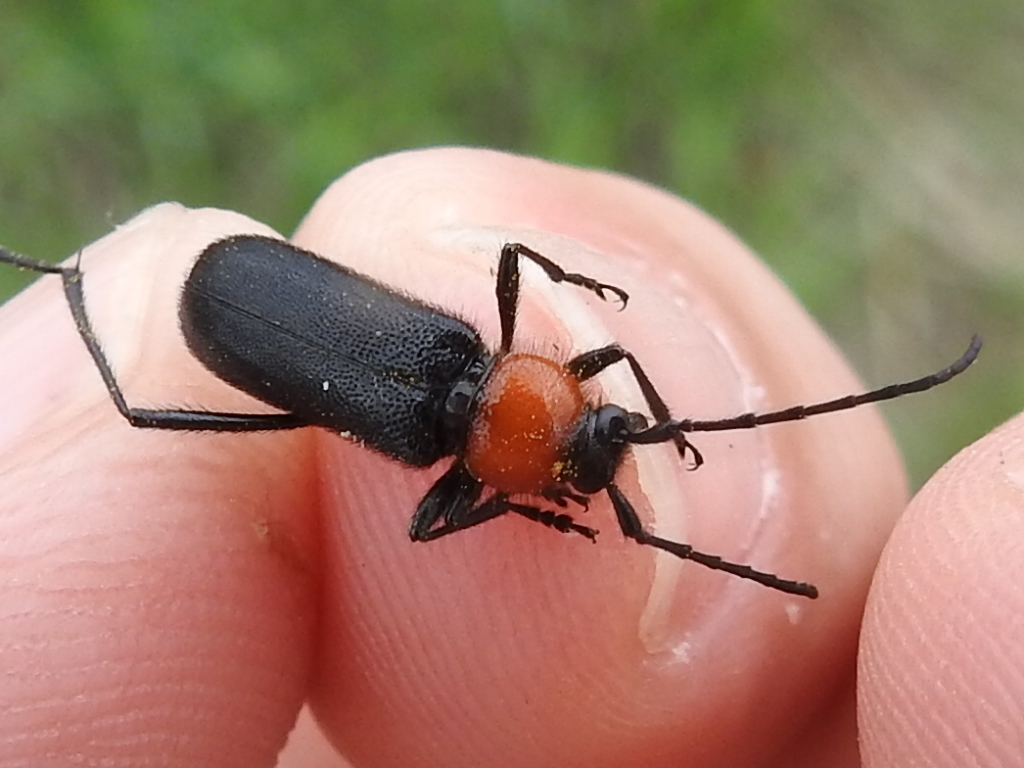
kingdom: Animalia
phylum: Arthropoda
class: Insecta
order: Coleoptera
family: Cerambycidae
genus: Batyle
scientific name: Batyle ignicollis
